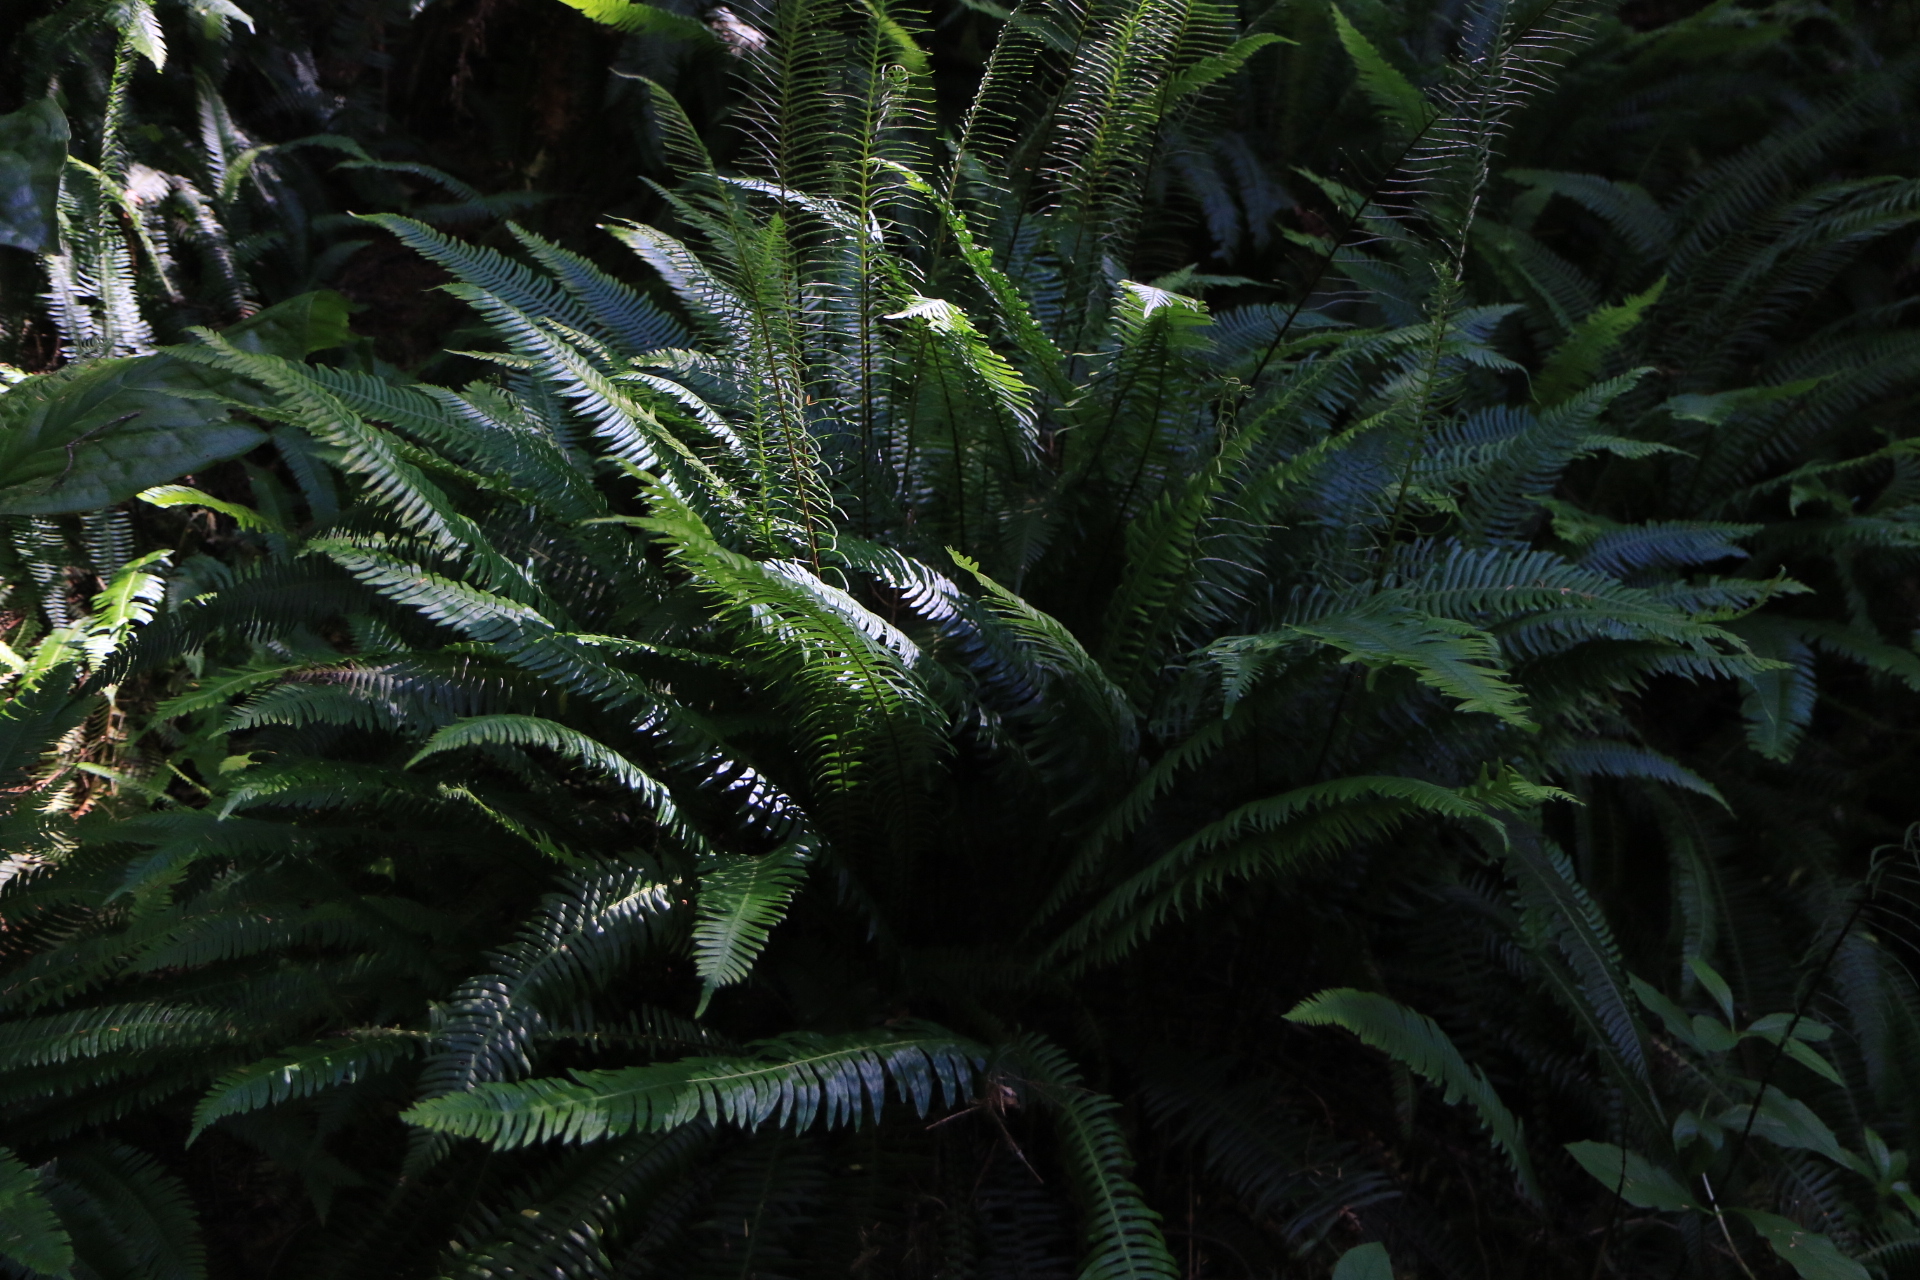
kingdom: Plantae
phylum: Tracheophyta
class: Polypodiopsida
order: Polypodiales
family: Dryopteridaceae
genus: Polystichum
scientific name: Polystichum munitum
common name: Western sword-fern
